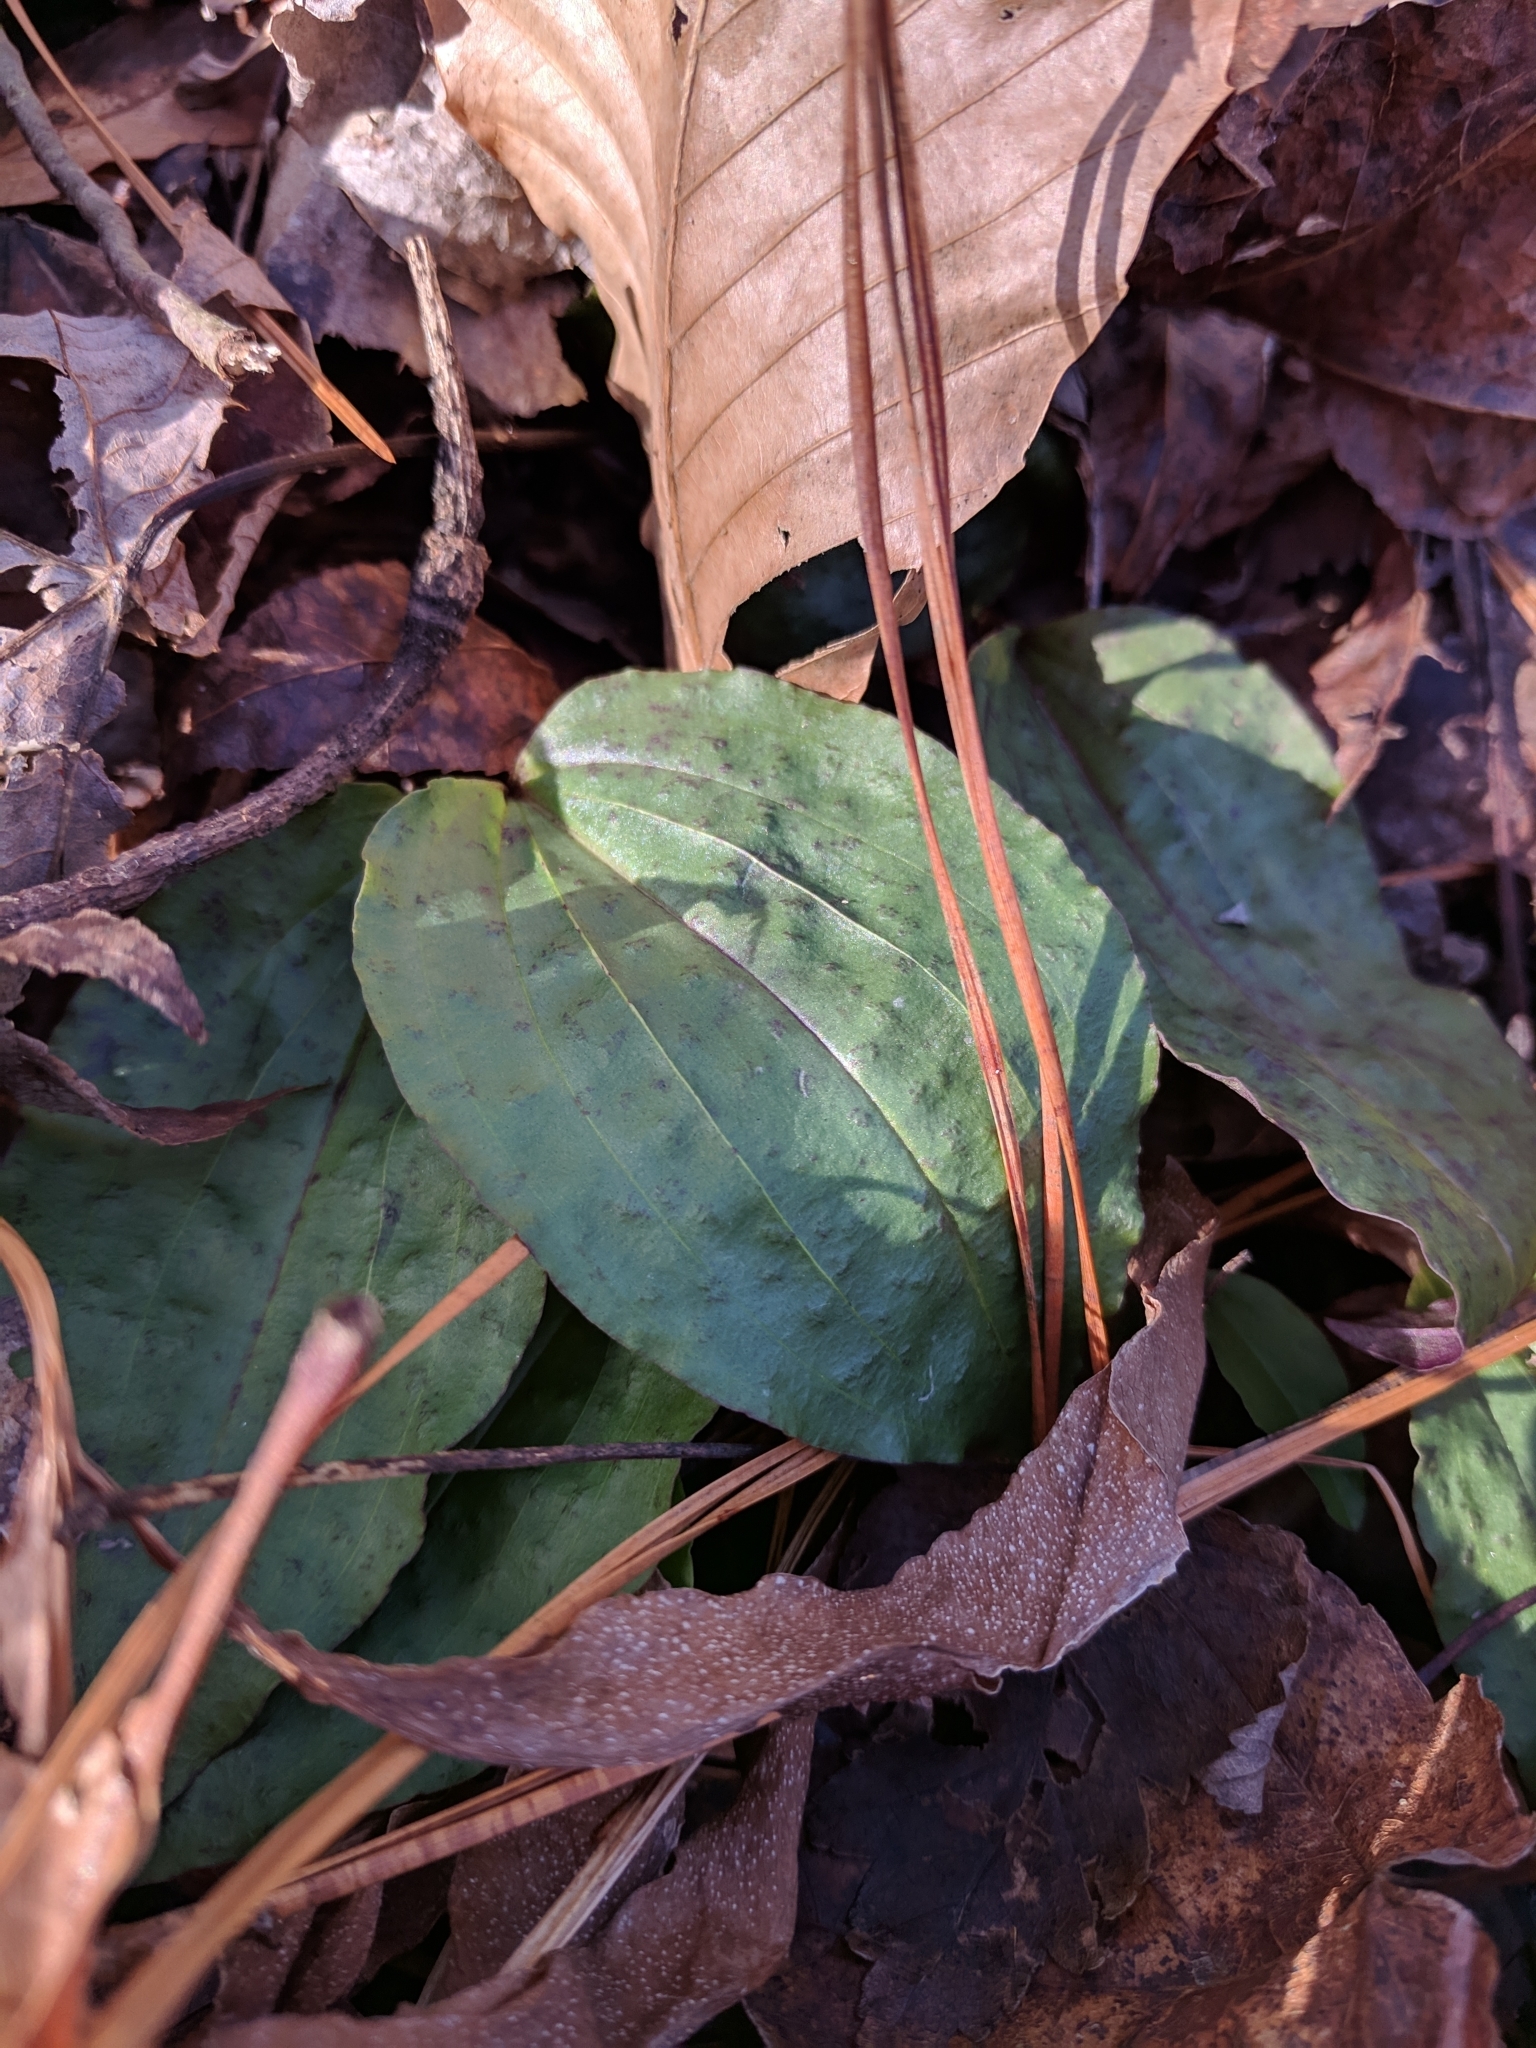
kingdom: Plantae
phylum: Tracheophyta
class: Liliopsida
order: Asparagales
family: Orchidaceae
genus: Tipularia
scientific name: Tipularia discolor
